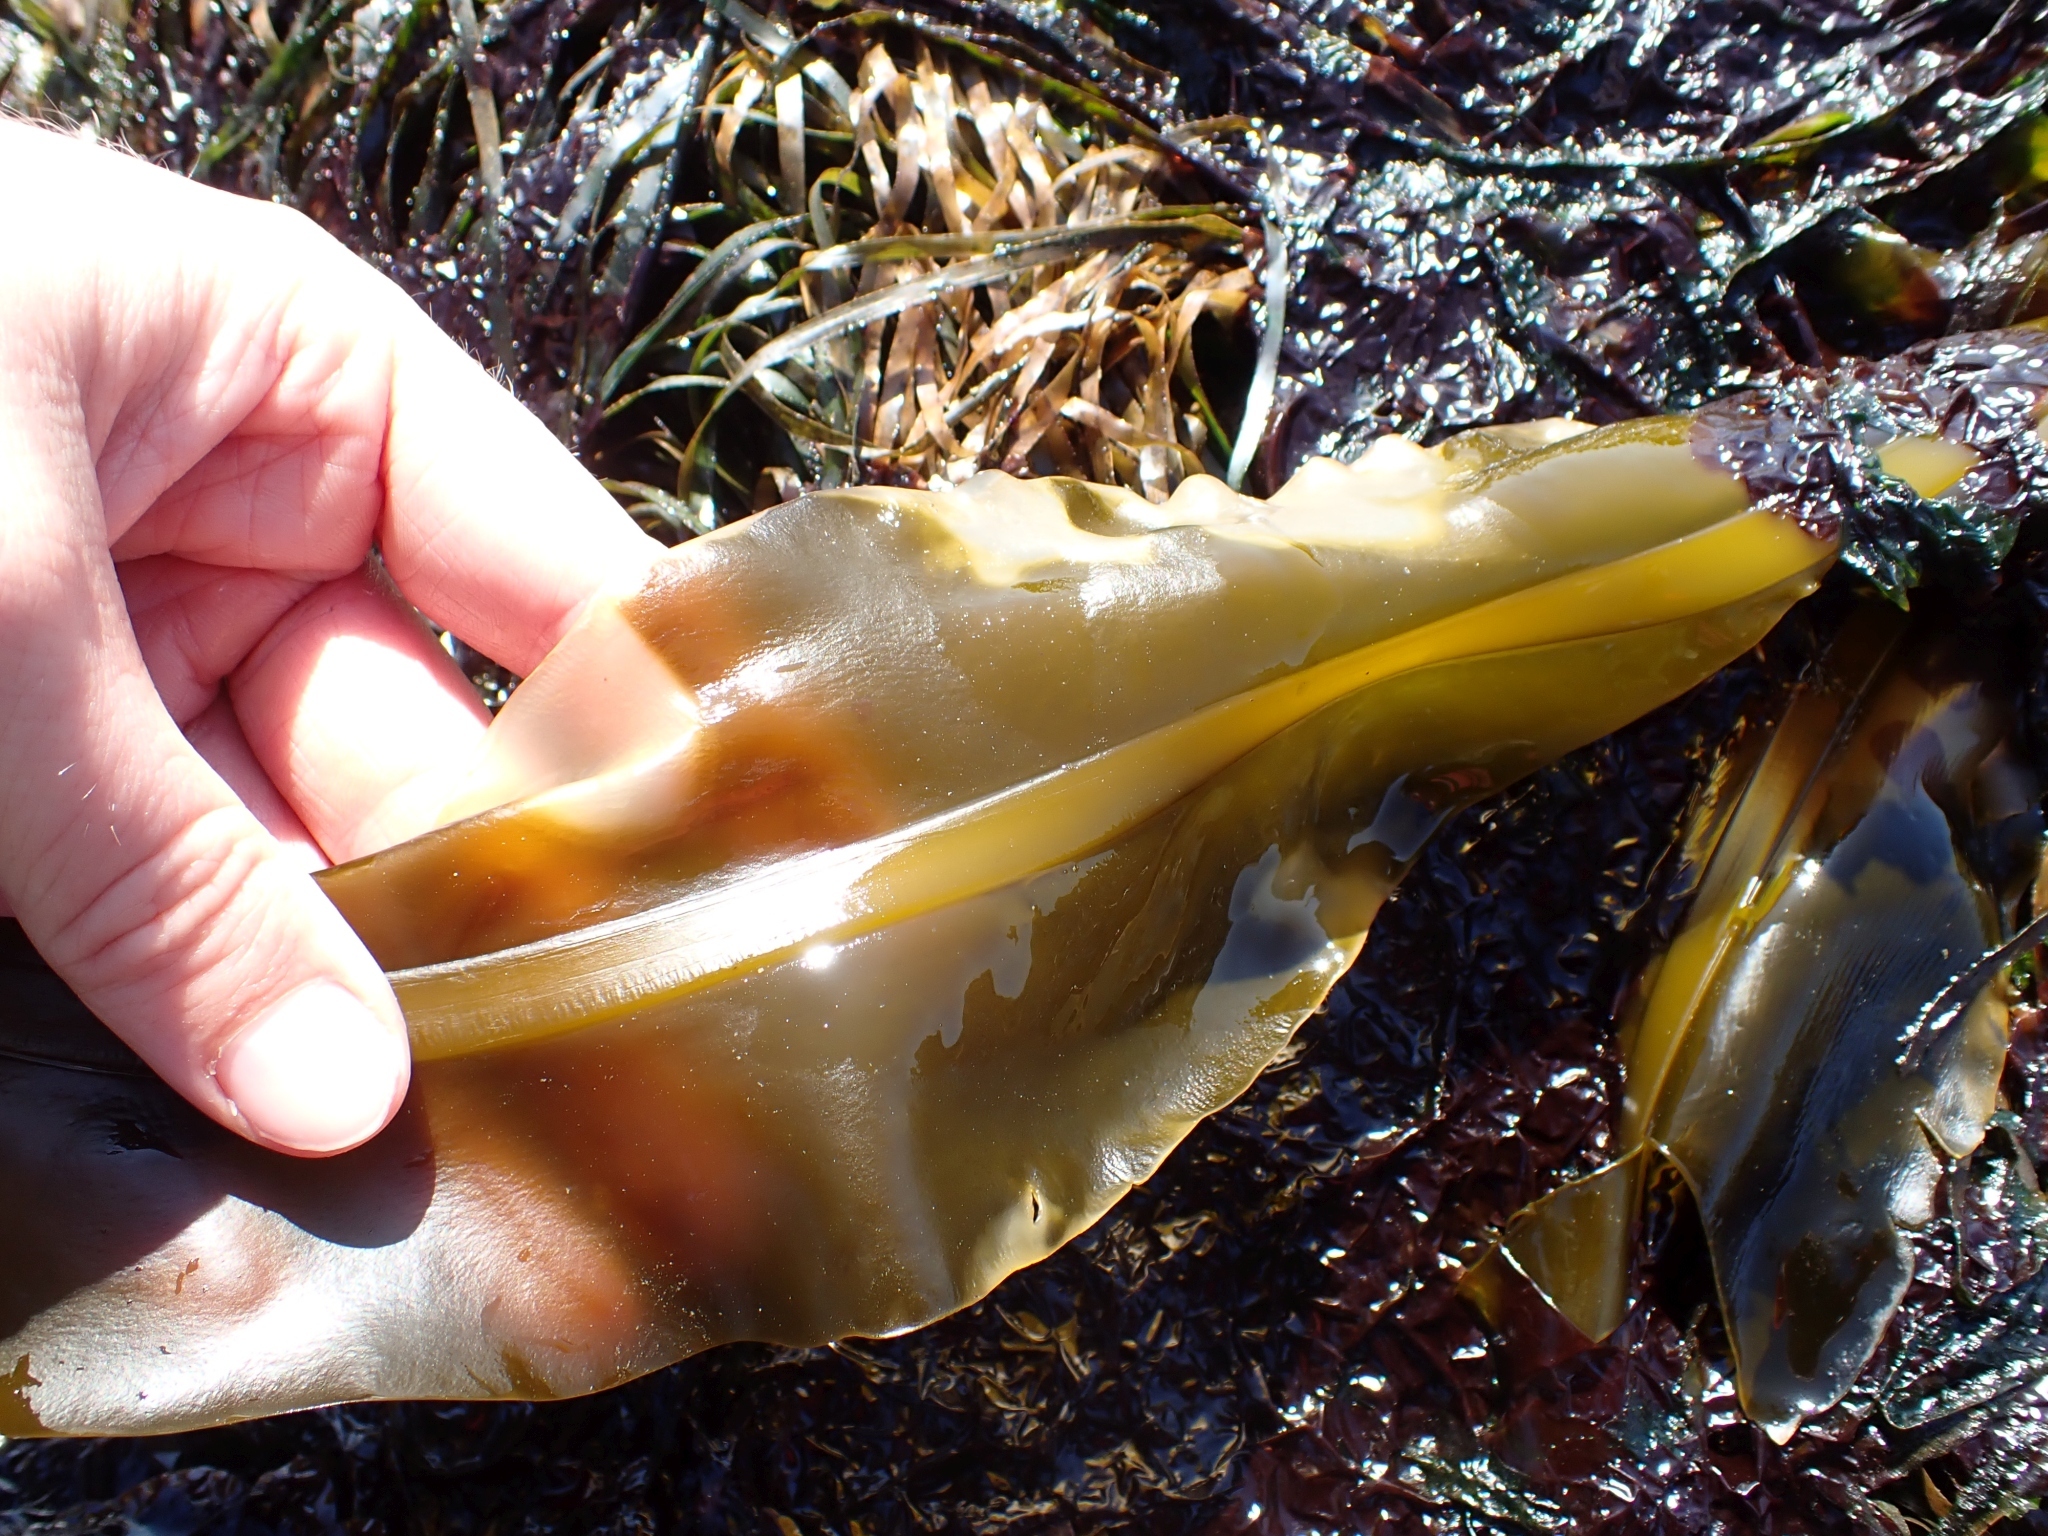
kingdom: Chromista
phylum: Ochrophyta
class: Phaeophyceae
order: Laminariales
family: Alariaceae
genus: Alaria
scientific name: Alaria marginata
